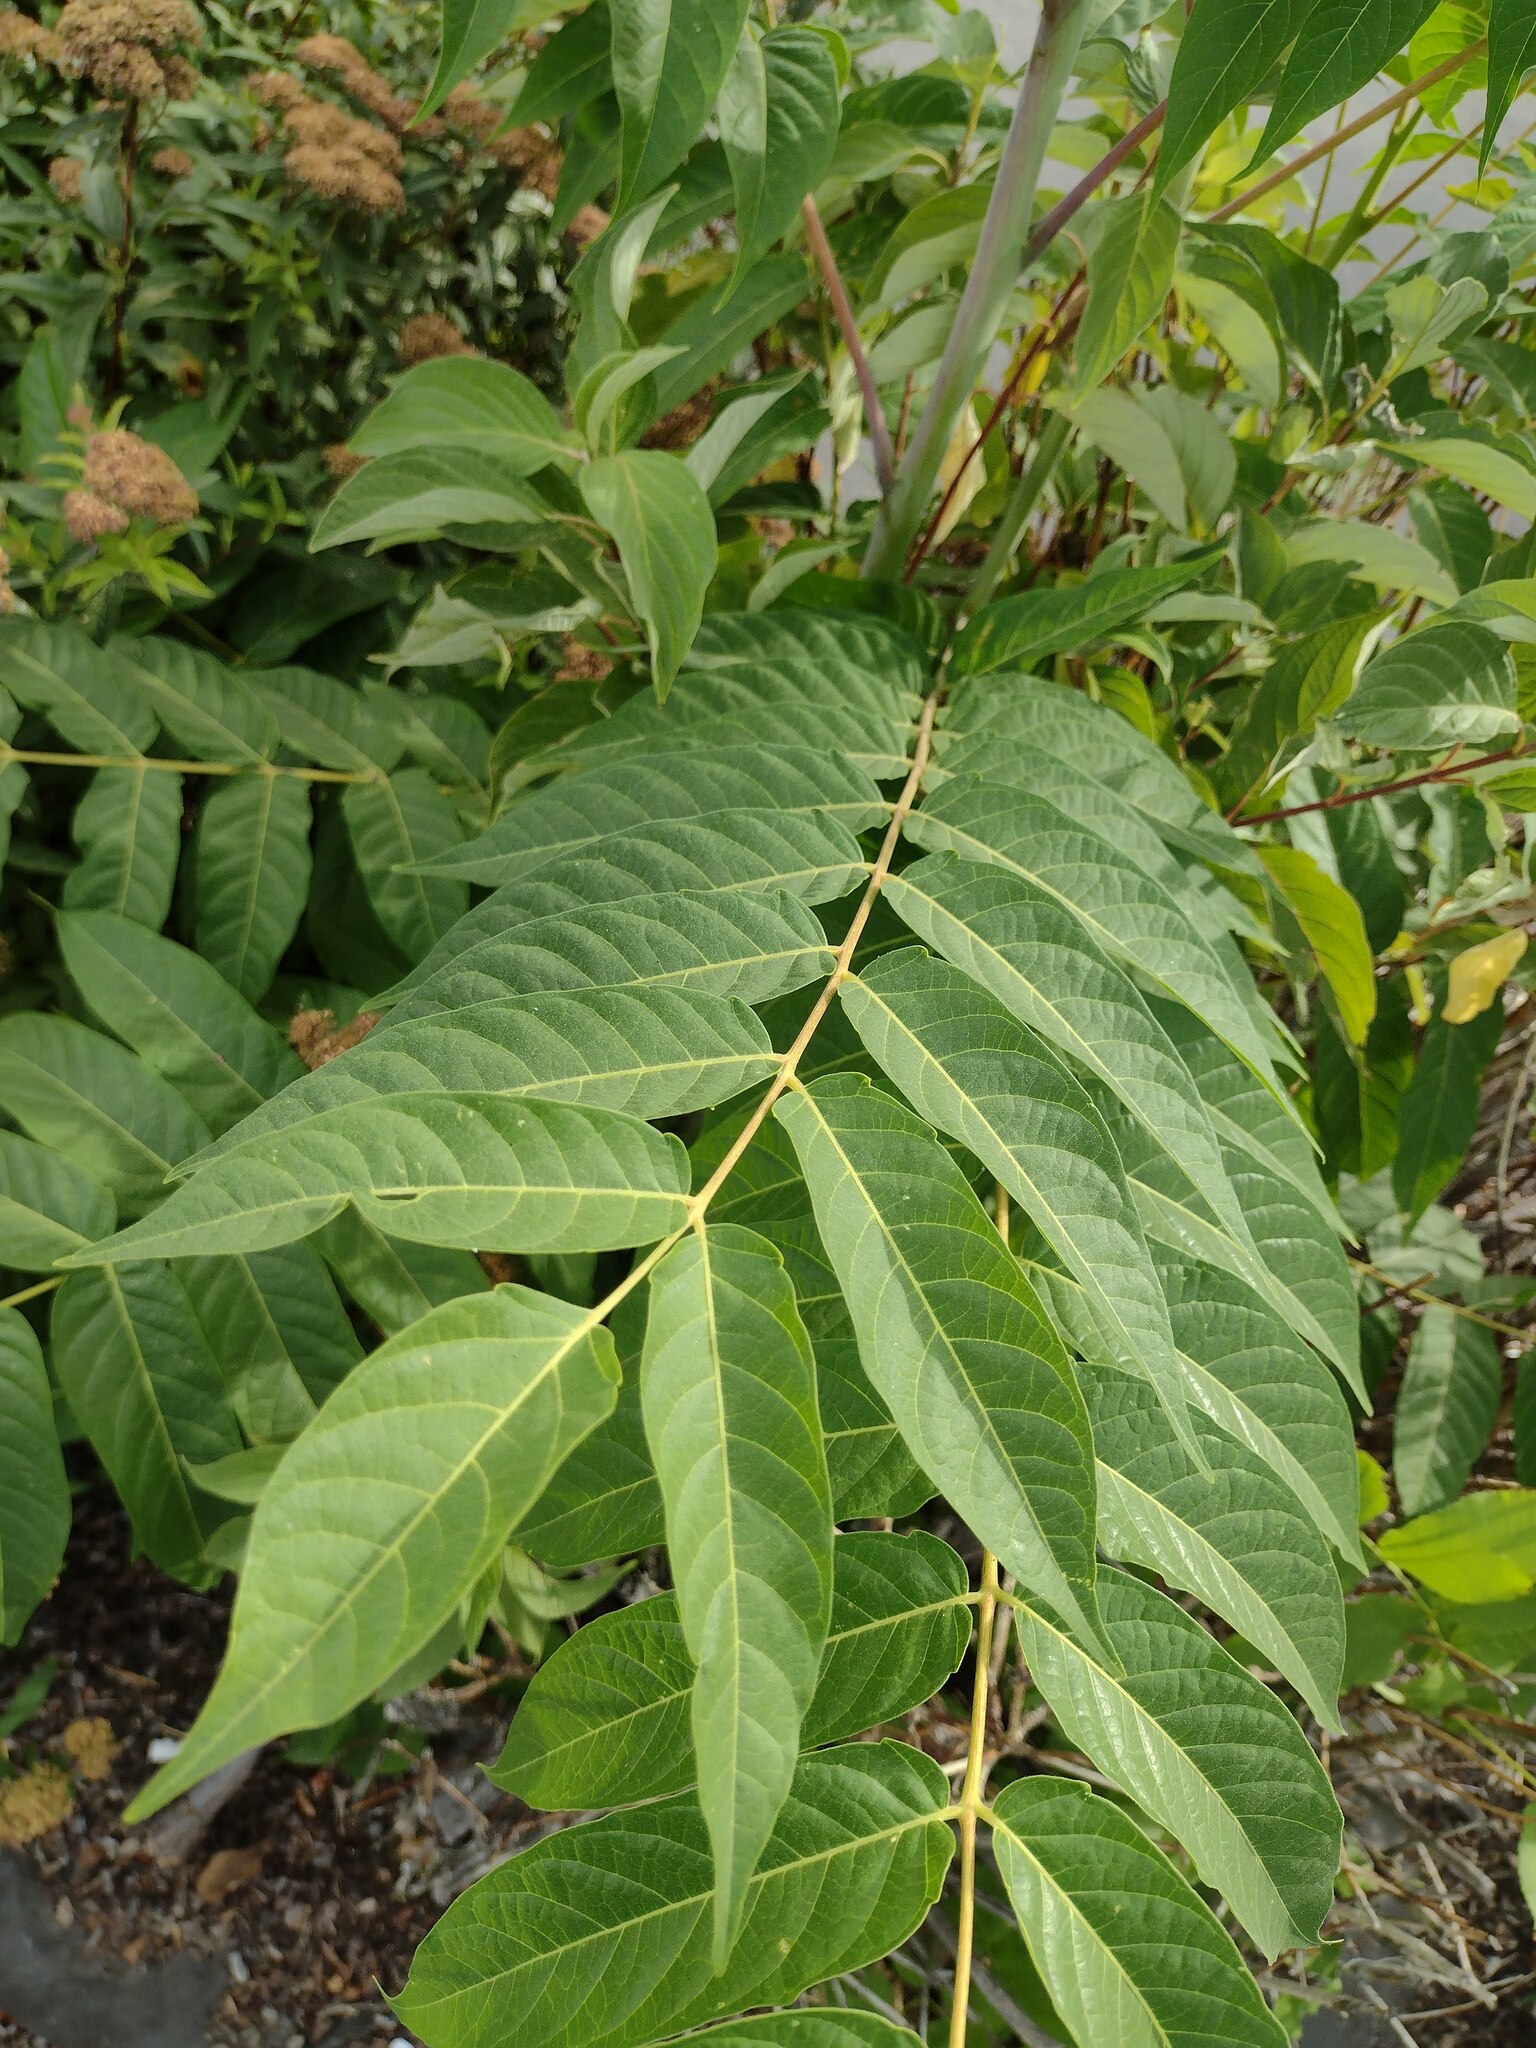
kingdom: Plantae
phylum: Tracheophyta
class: Magnoliopsida
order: Sapindales
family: Simaroubaceae
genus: Ailanthus
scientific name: Ailanthus altissima
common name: Tree-of-heaven
